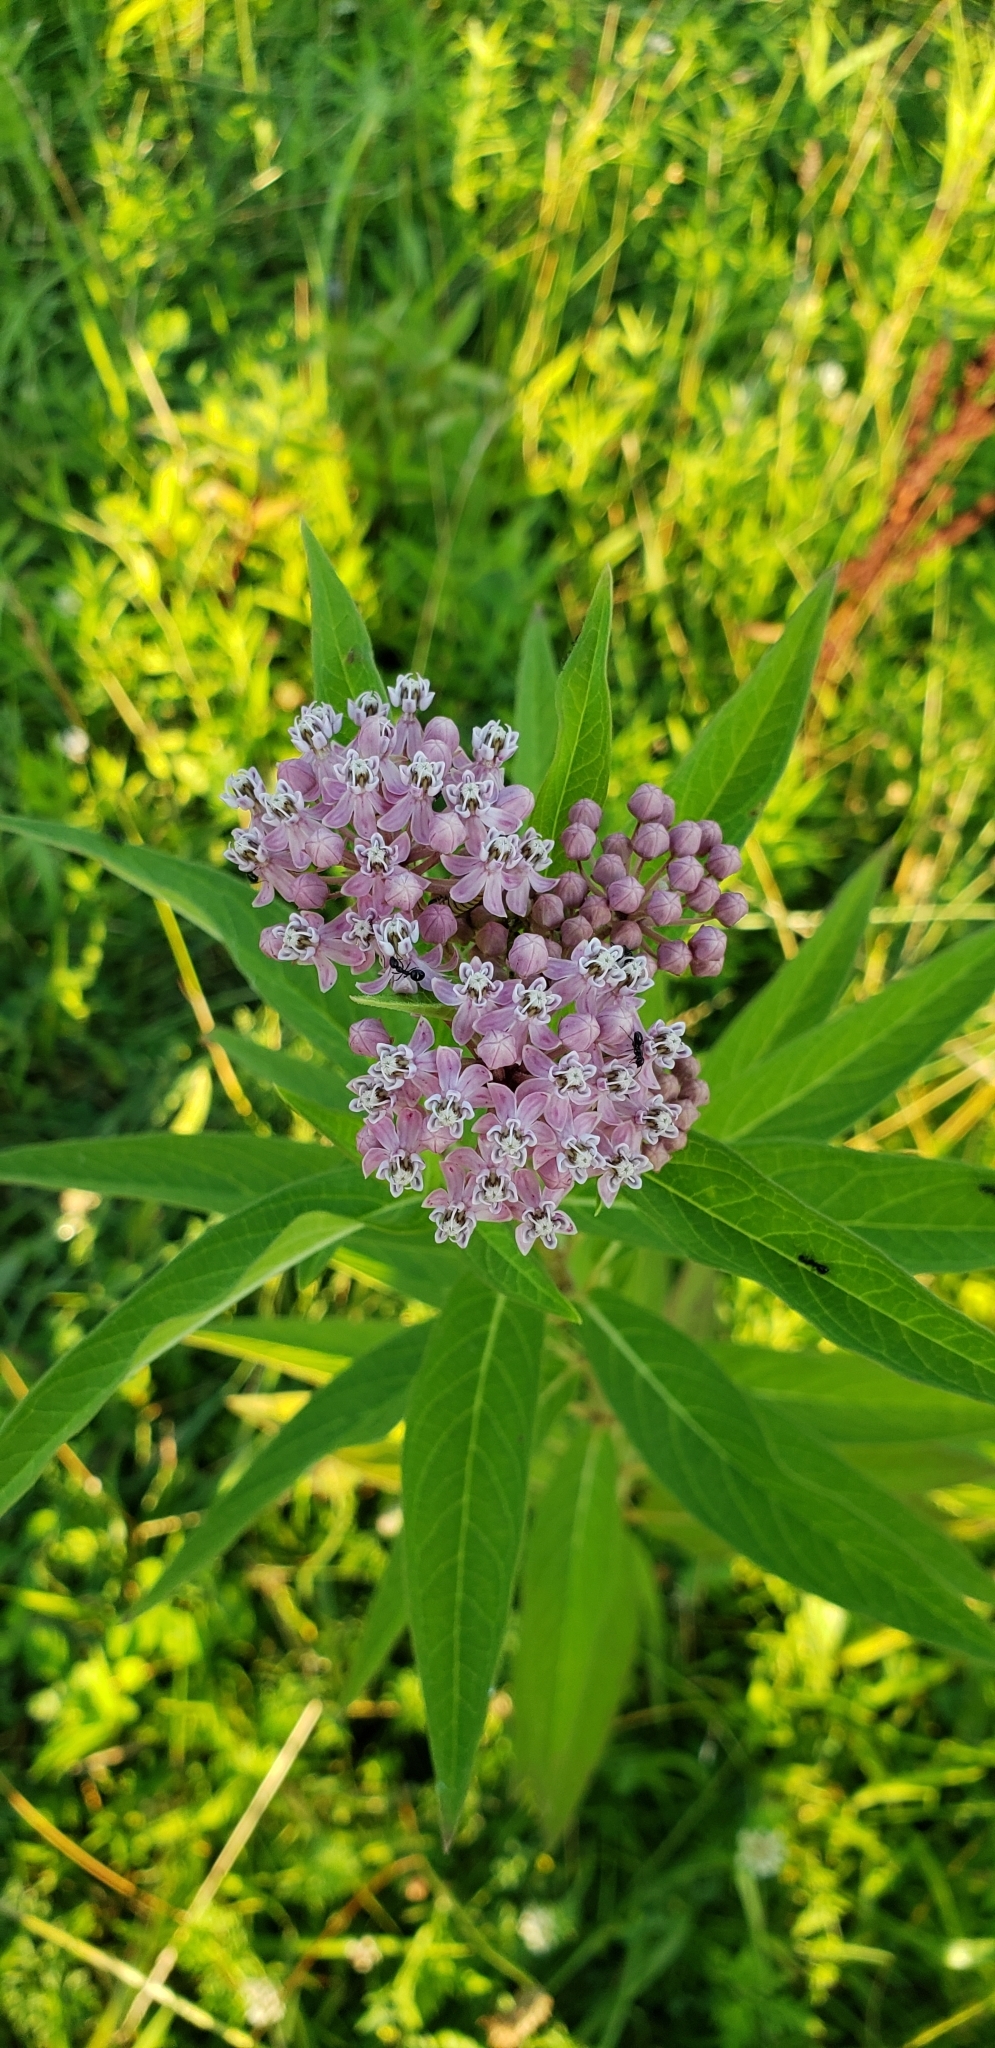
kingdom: Plantae
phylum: Tracheophyta
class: Magnoliopsida
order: Gentianales
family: Apocynaceae
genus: Asclepias
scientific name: Asclepias incarnata
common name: Swamp milkweed
